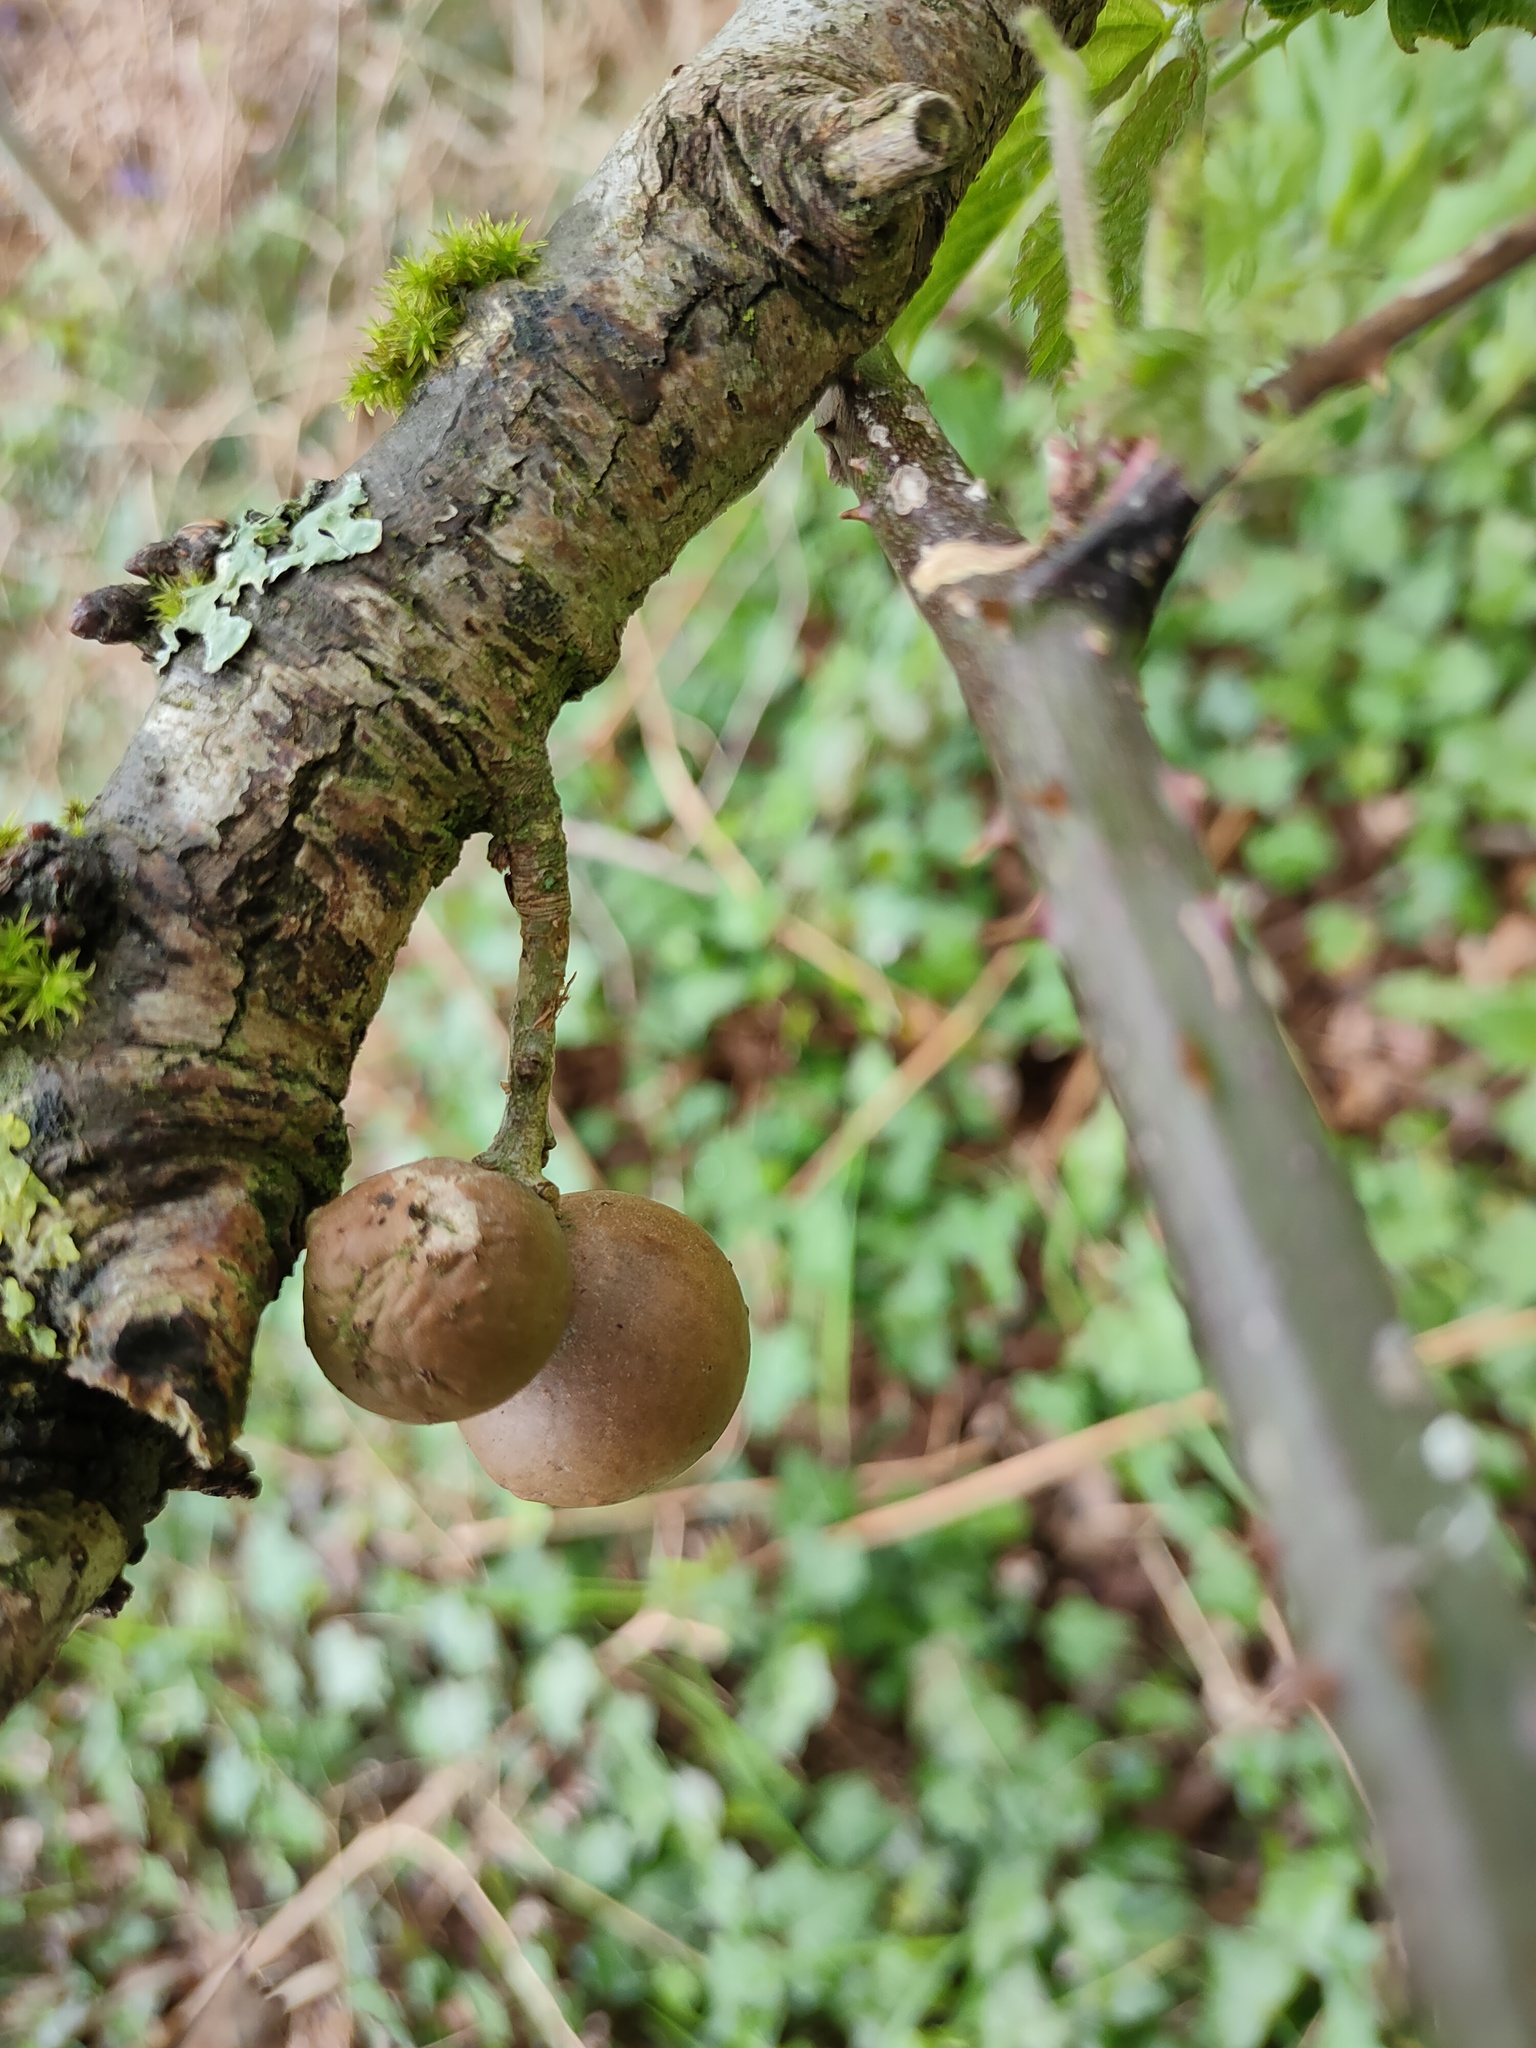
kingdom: Animalia
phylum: Arthropoda
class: Insecta
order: Hymenoptera
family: Cynipidae
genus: Andricus
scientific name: Andricus kollari
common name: Marble gall
